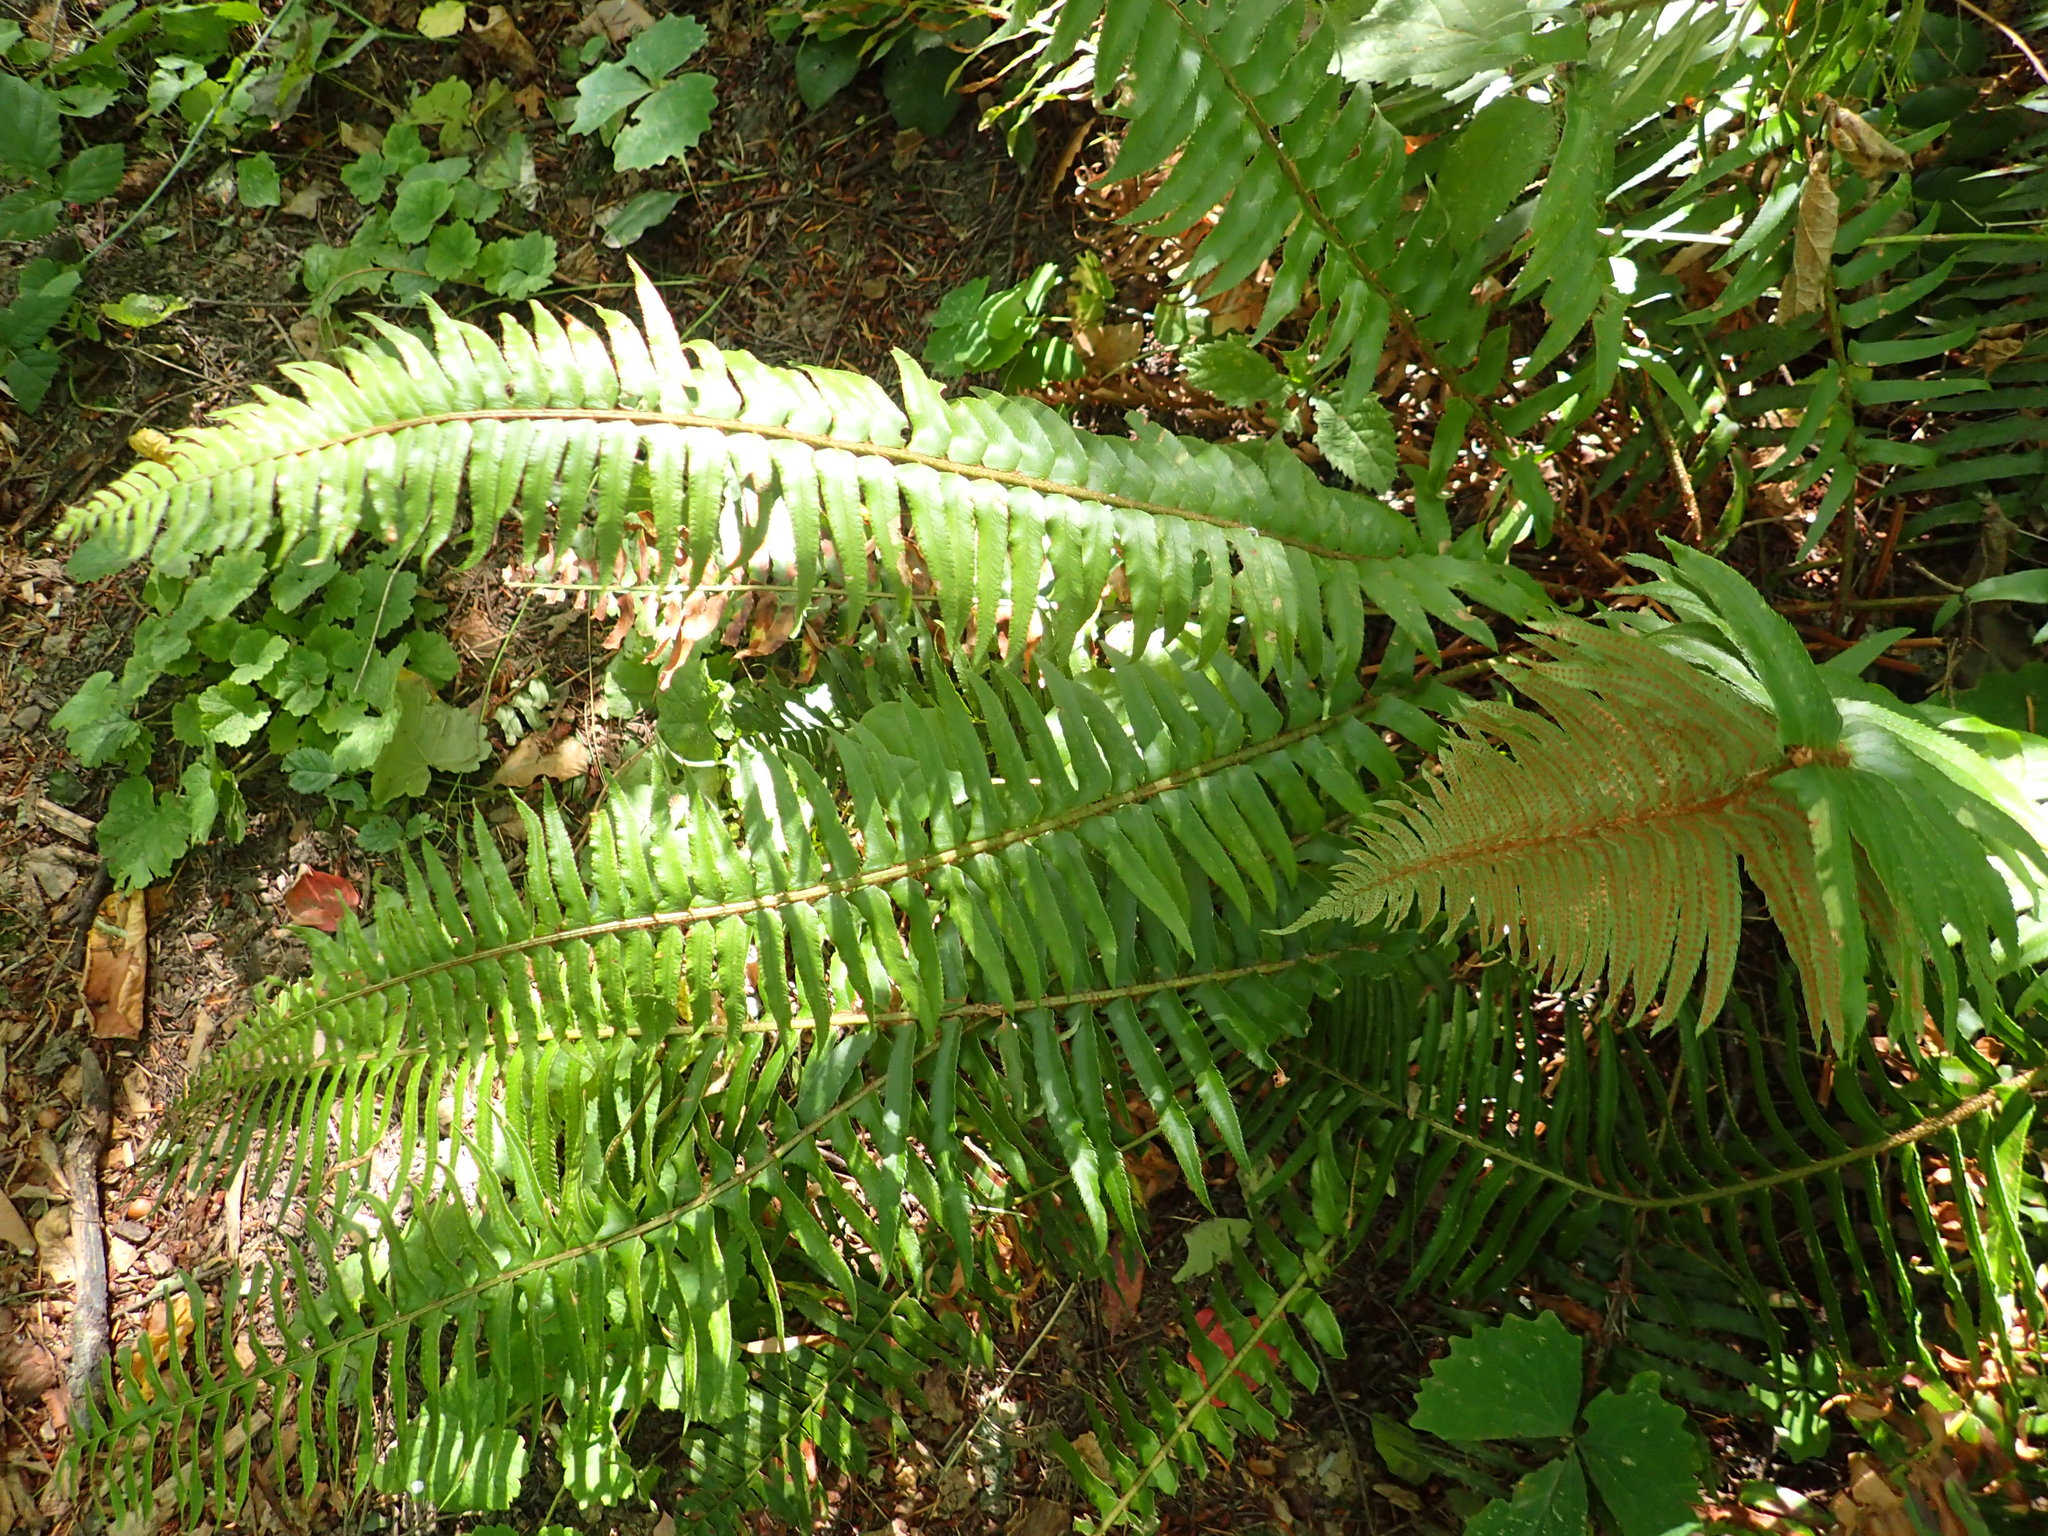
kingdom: Plantae
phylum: Tracheophyta
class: Polypodiopsida
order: Polypodiales
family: Dryopteridaceae
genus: Polystichum
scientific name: Polystichum munitum
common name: Western sword-fern
